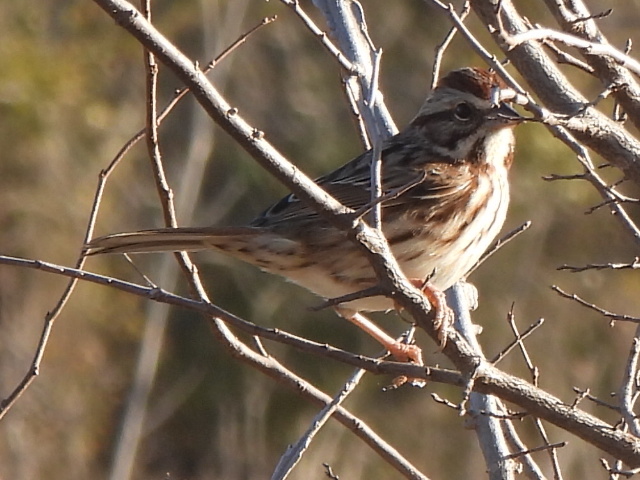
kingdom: Animalia
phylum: Chordata
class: Aves
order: Passeriformes
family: Passerellidae
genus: Melospiza
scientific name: Melospiza melodia
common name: Song sparrow
